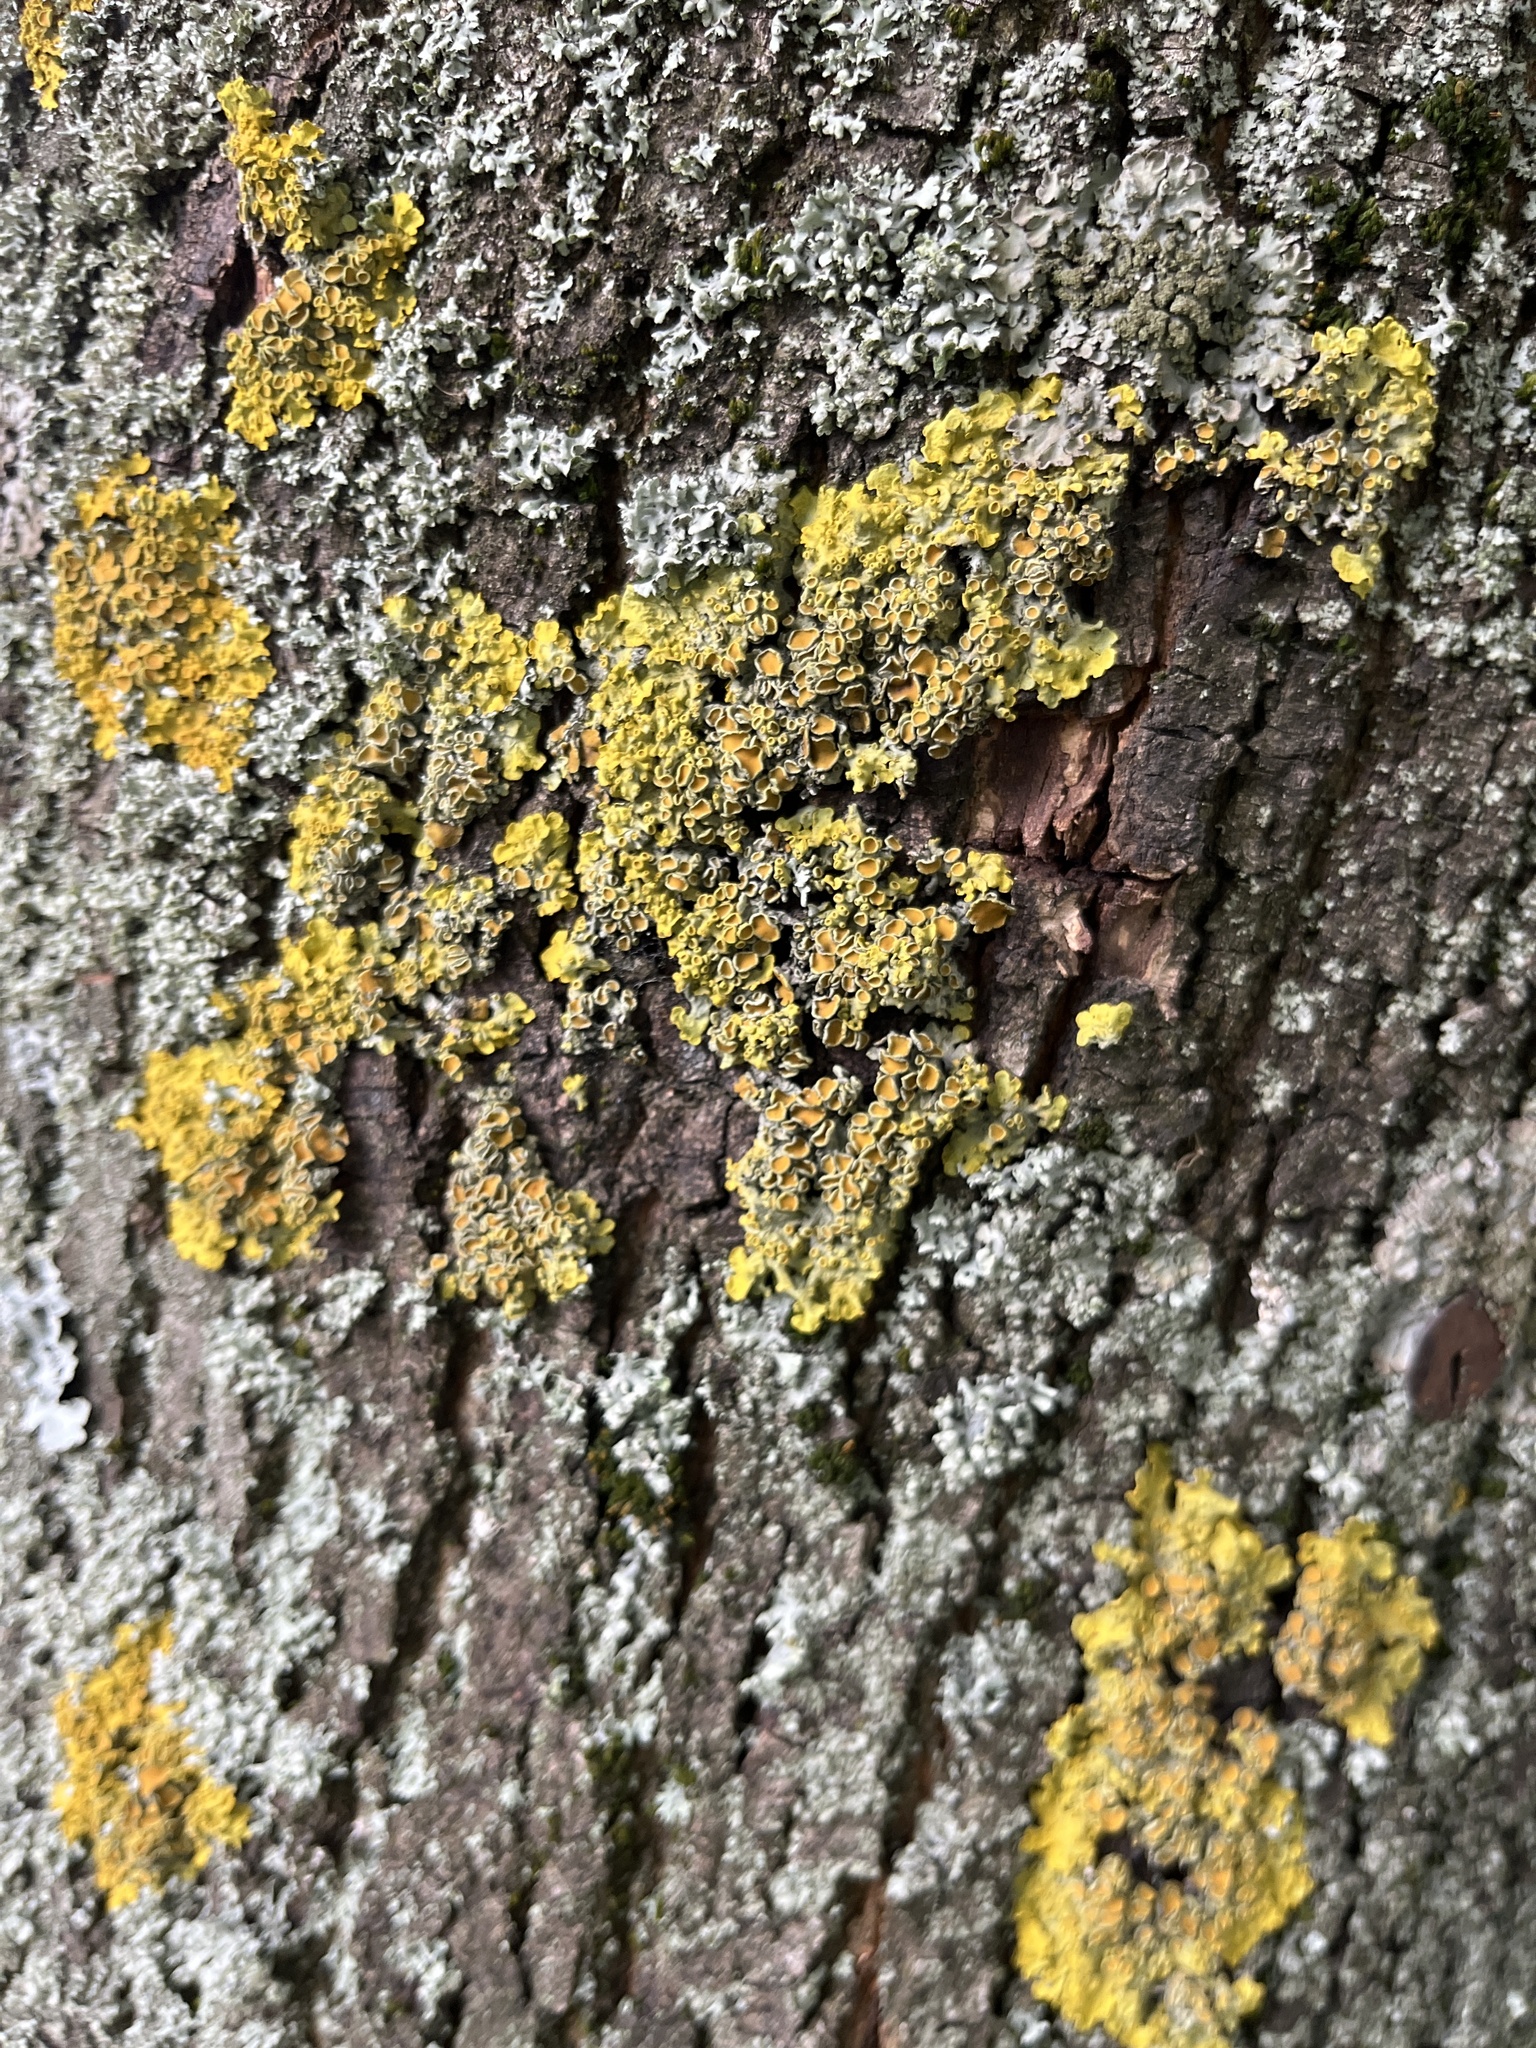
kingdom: Fungi
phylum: Ascomycota
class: Lecanoromycetes
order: Teloschistales
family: Teloschistaceae
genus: Xanthoria
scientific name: Xanthoria parietina
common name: Common orange lichen
